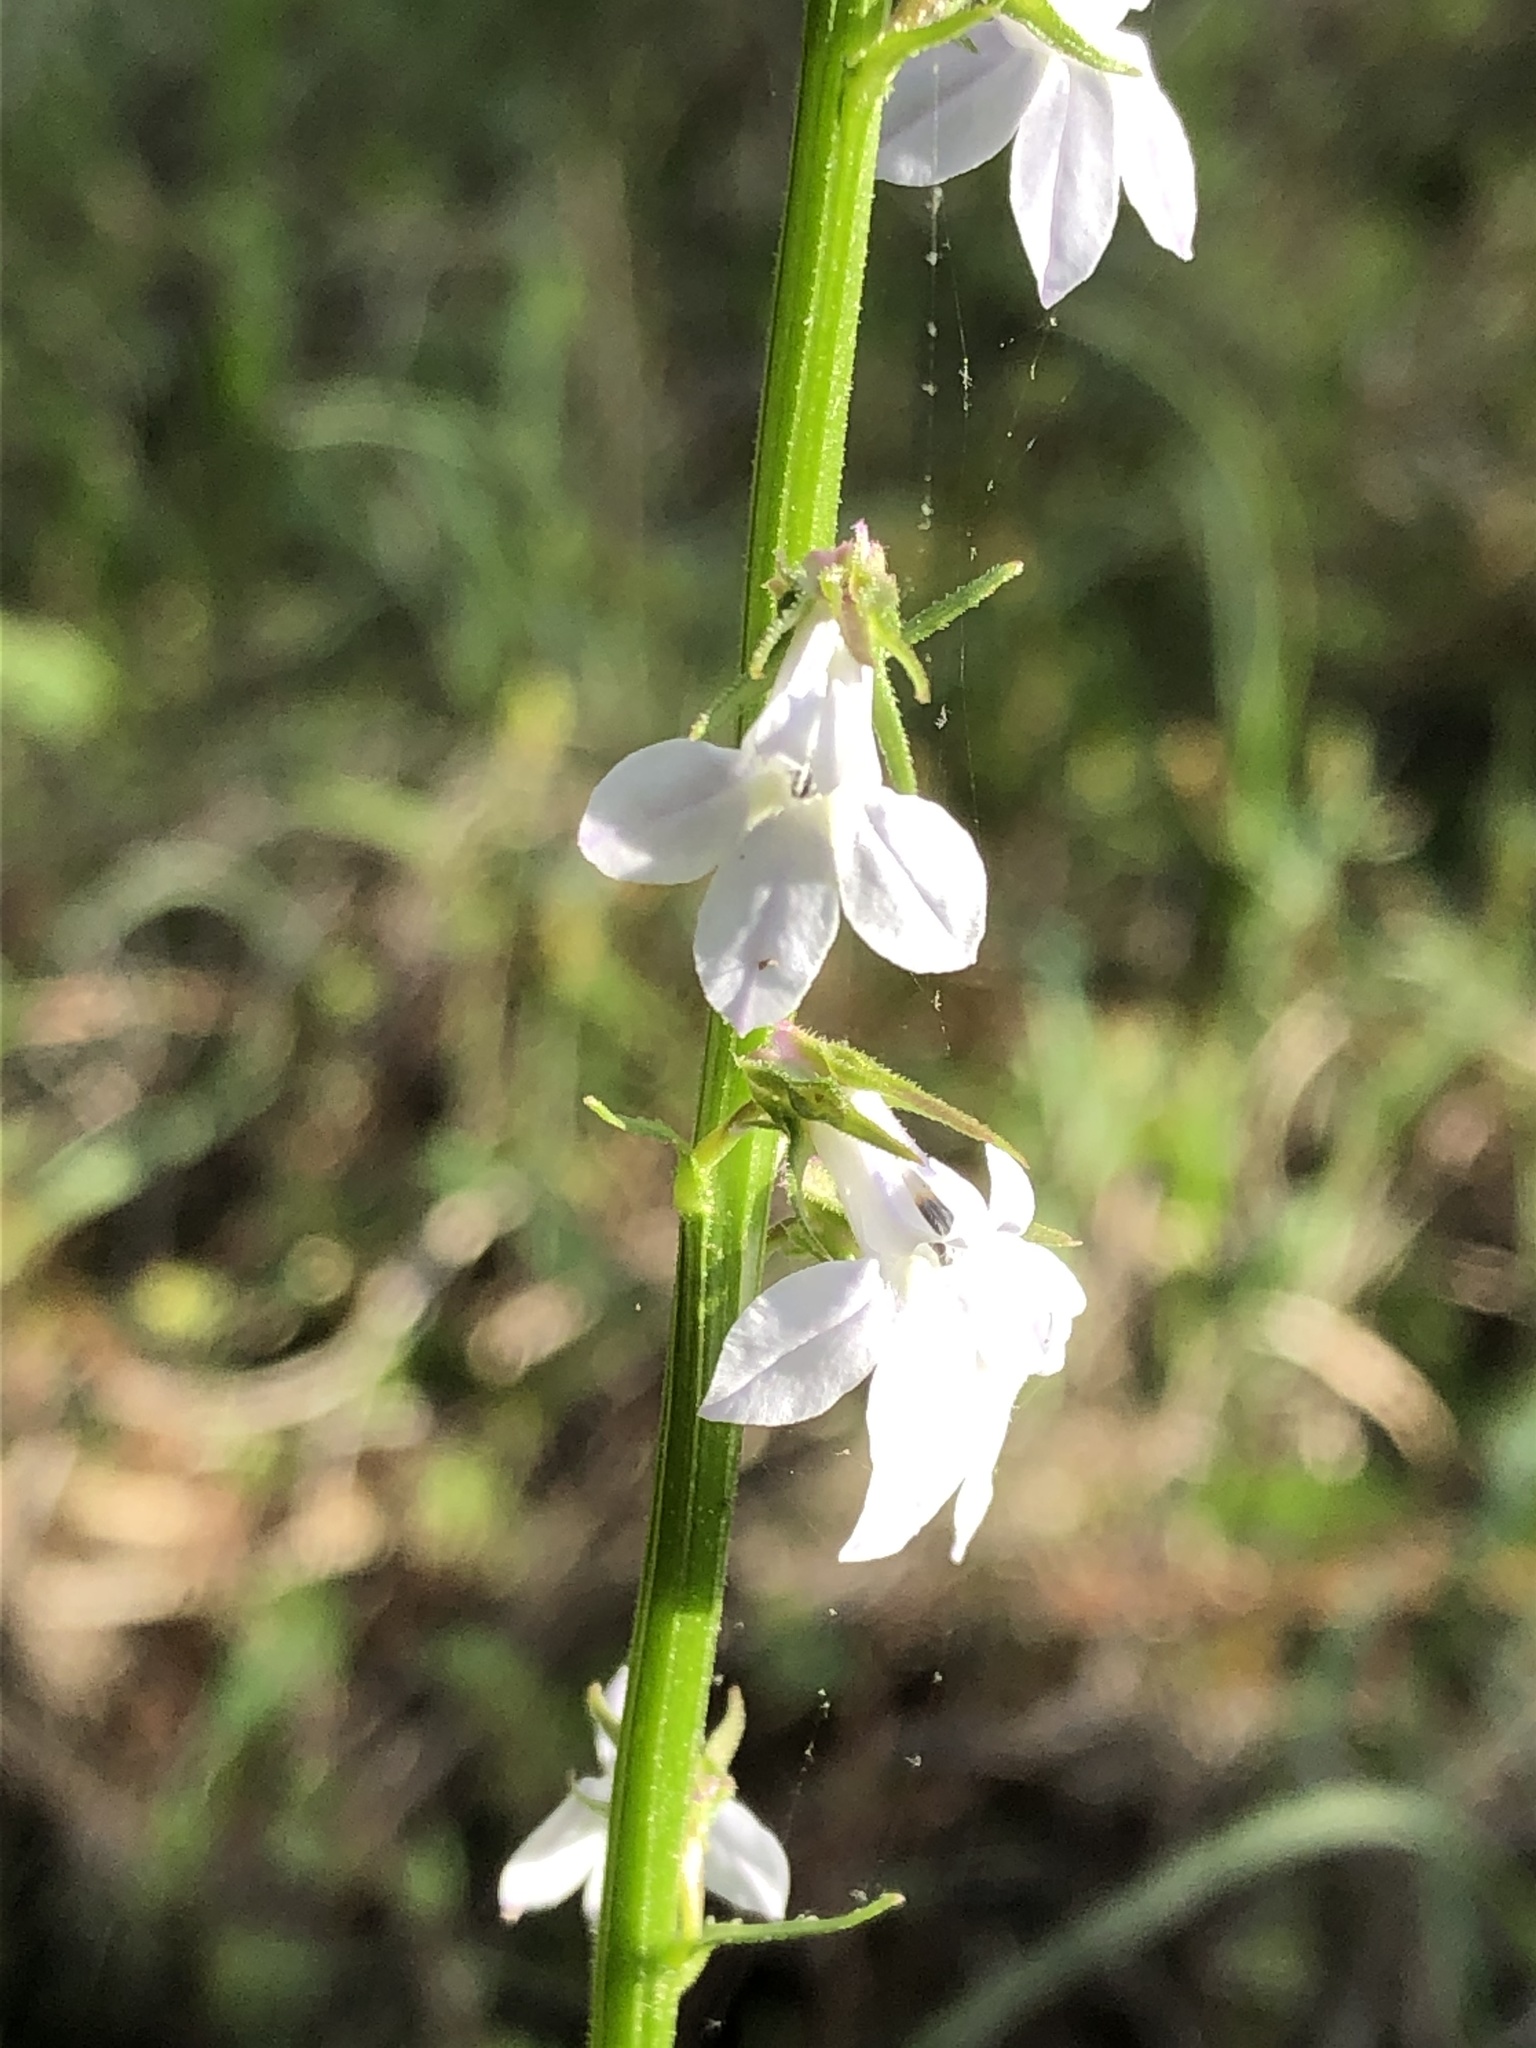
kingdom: Plantae
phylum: Tracheophyta
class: Magnoliopsida
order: Asterales
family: Campanulaceae
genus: Lobelia
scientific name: Lobelia appendiculata
